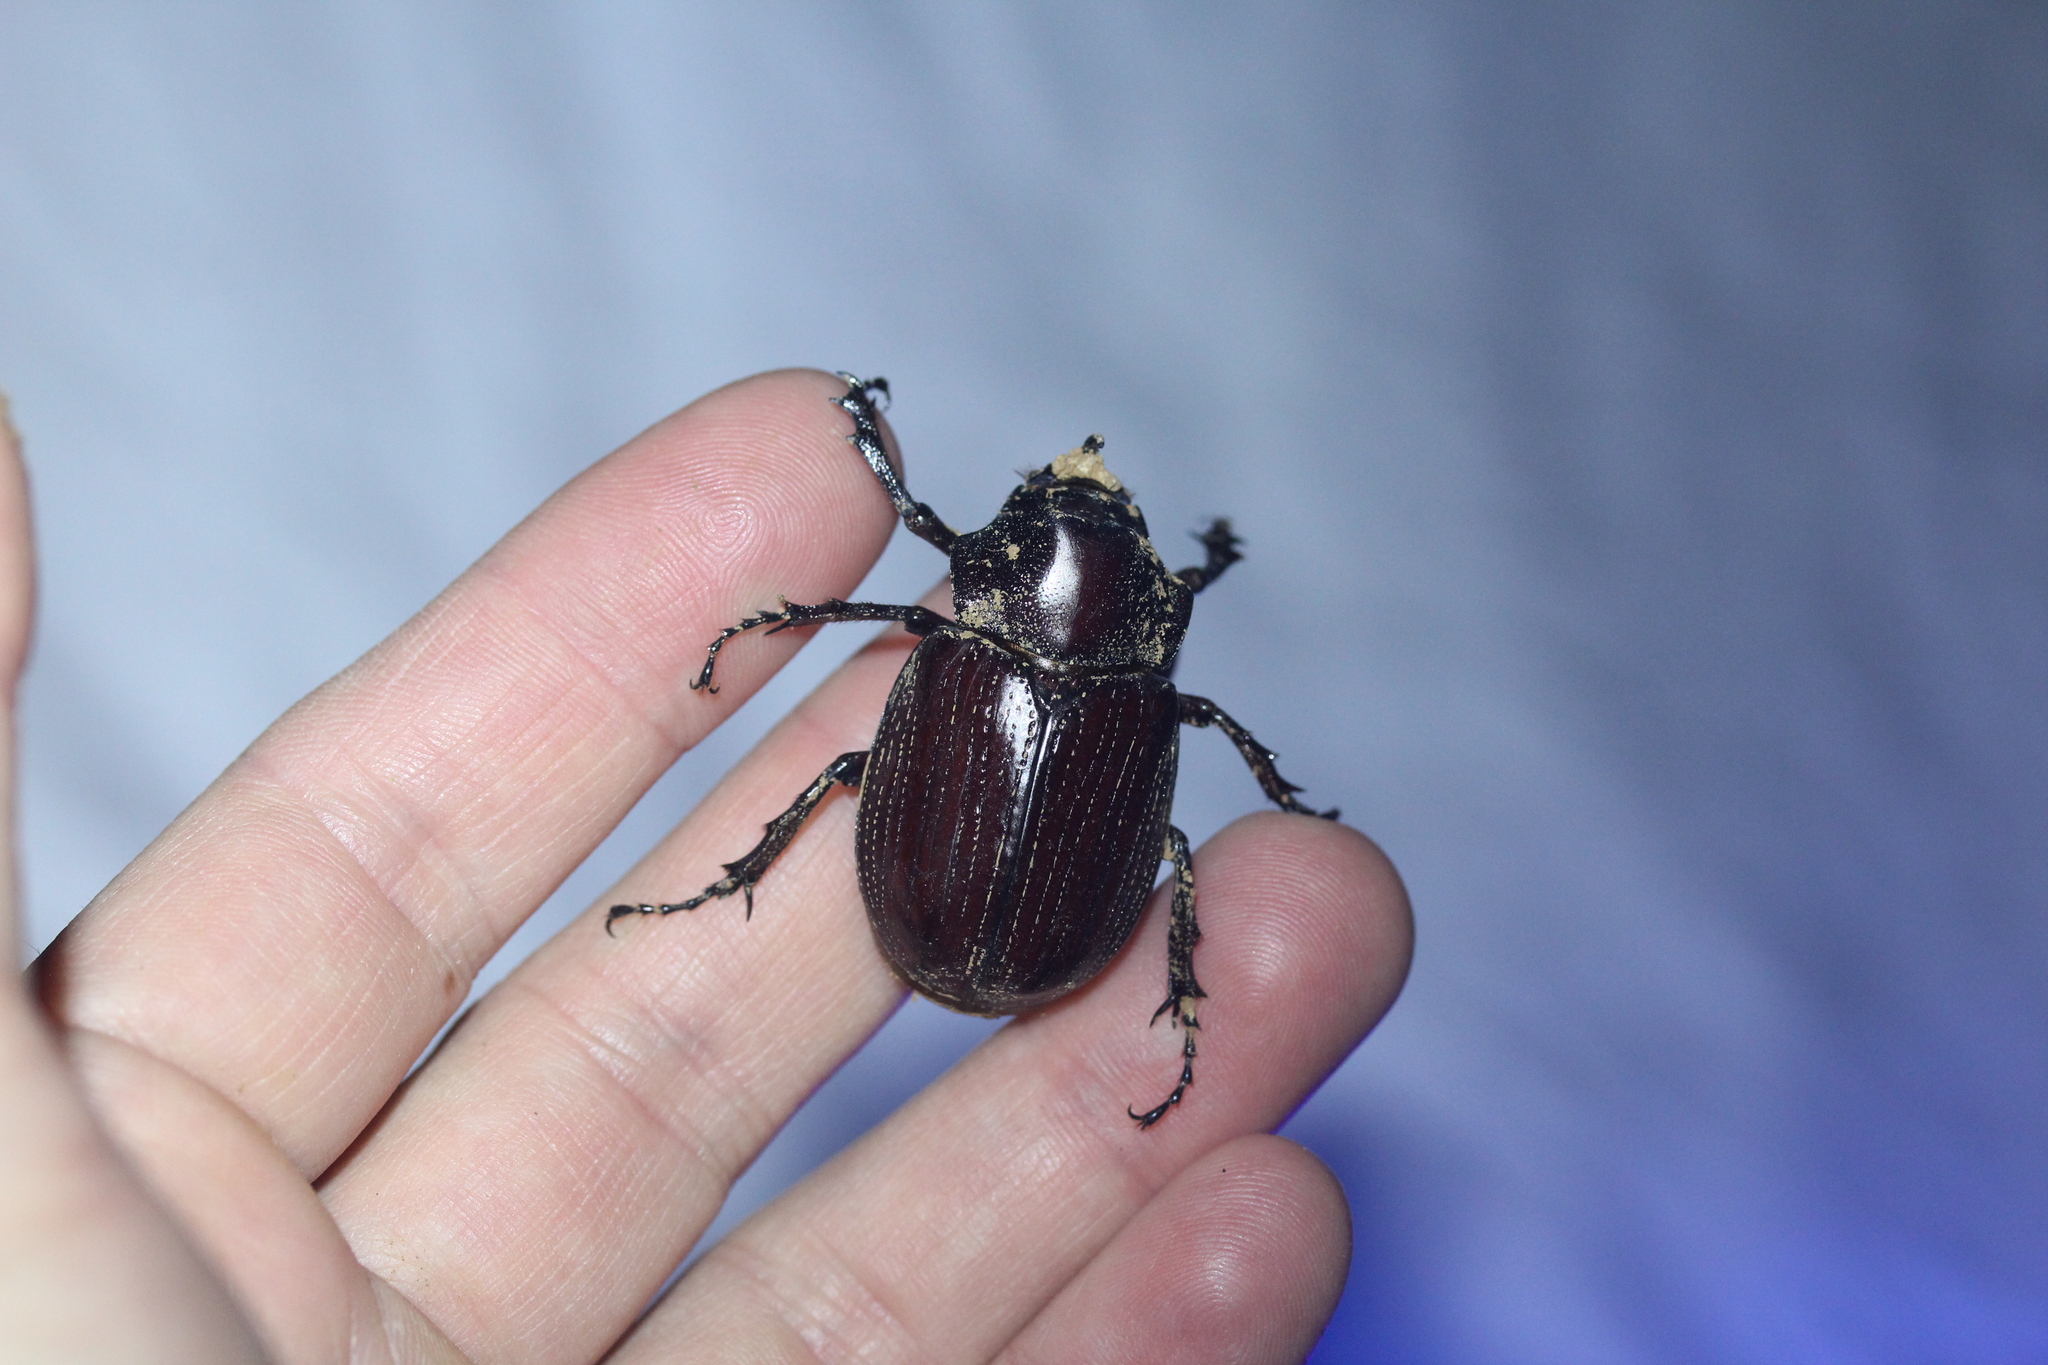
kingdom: Animalia
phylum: Arthropoda
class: Insecta
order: Coleoptera
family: Scarabaeidae
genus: Coelosis
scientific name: Coelosis biloba
